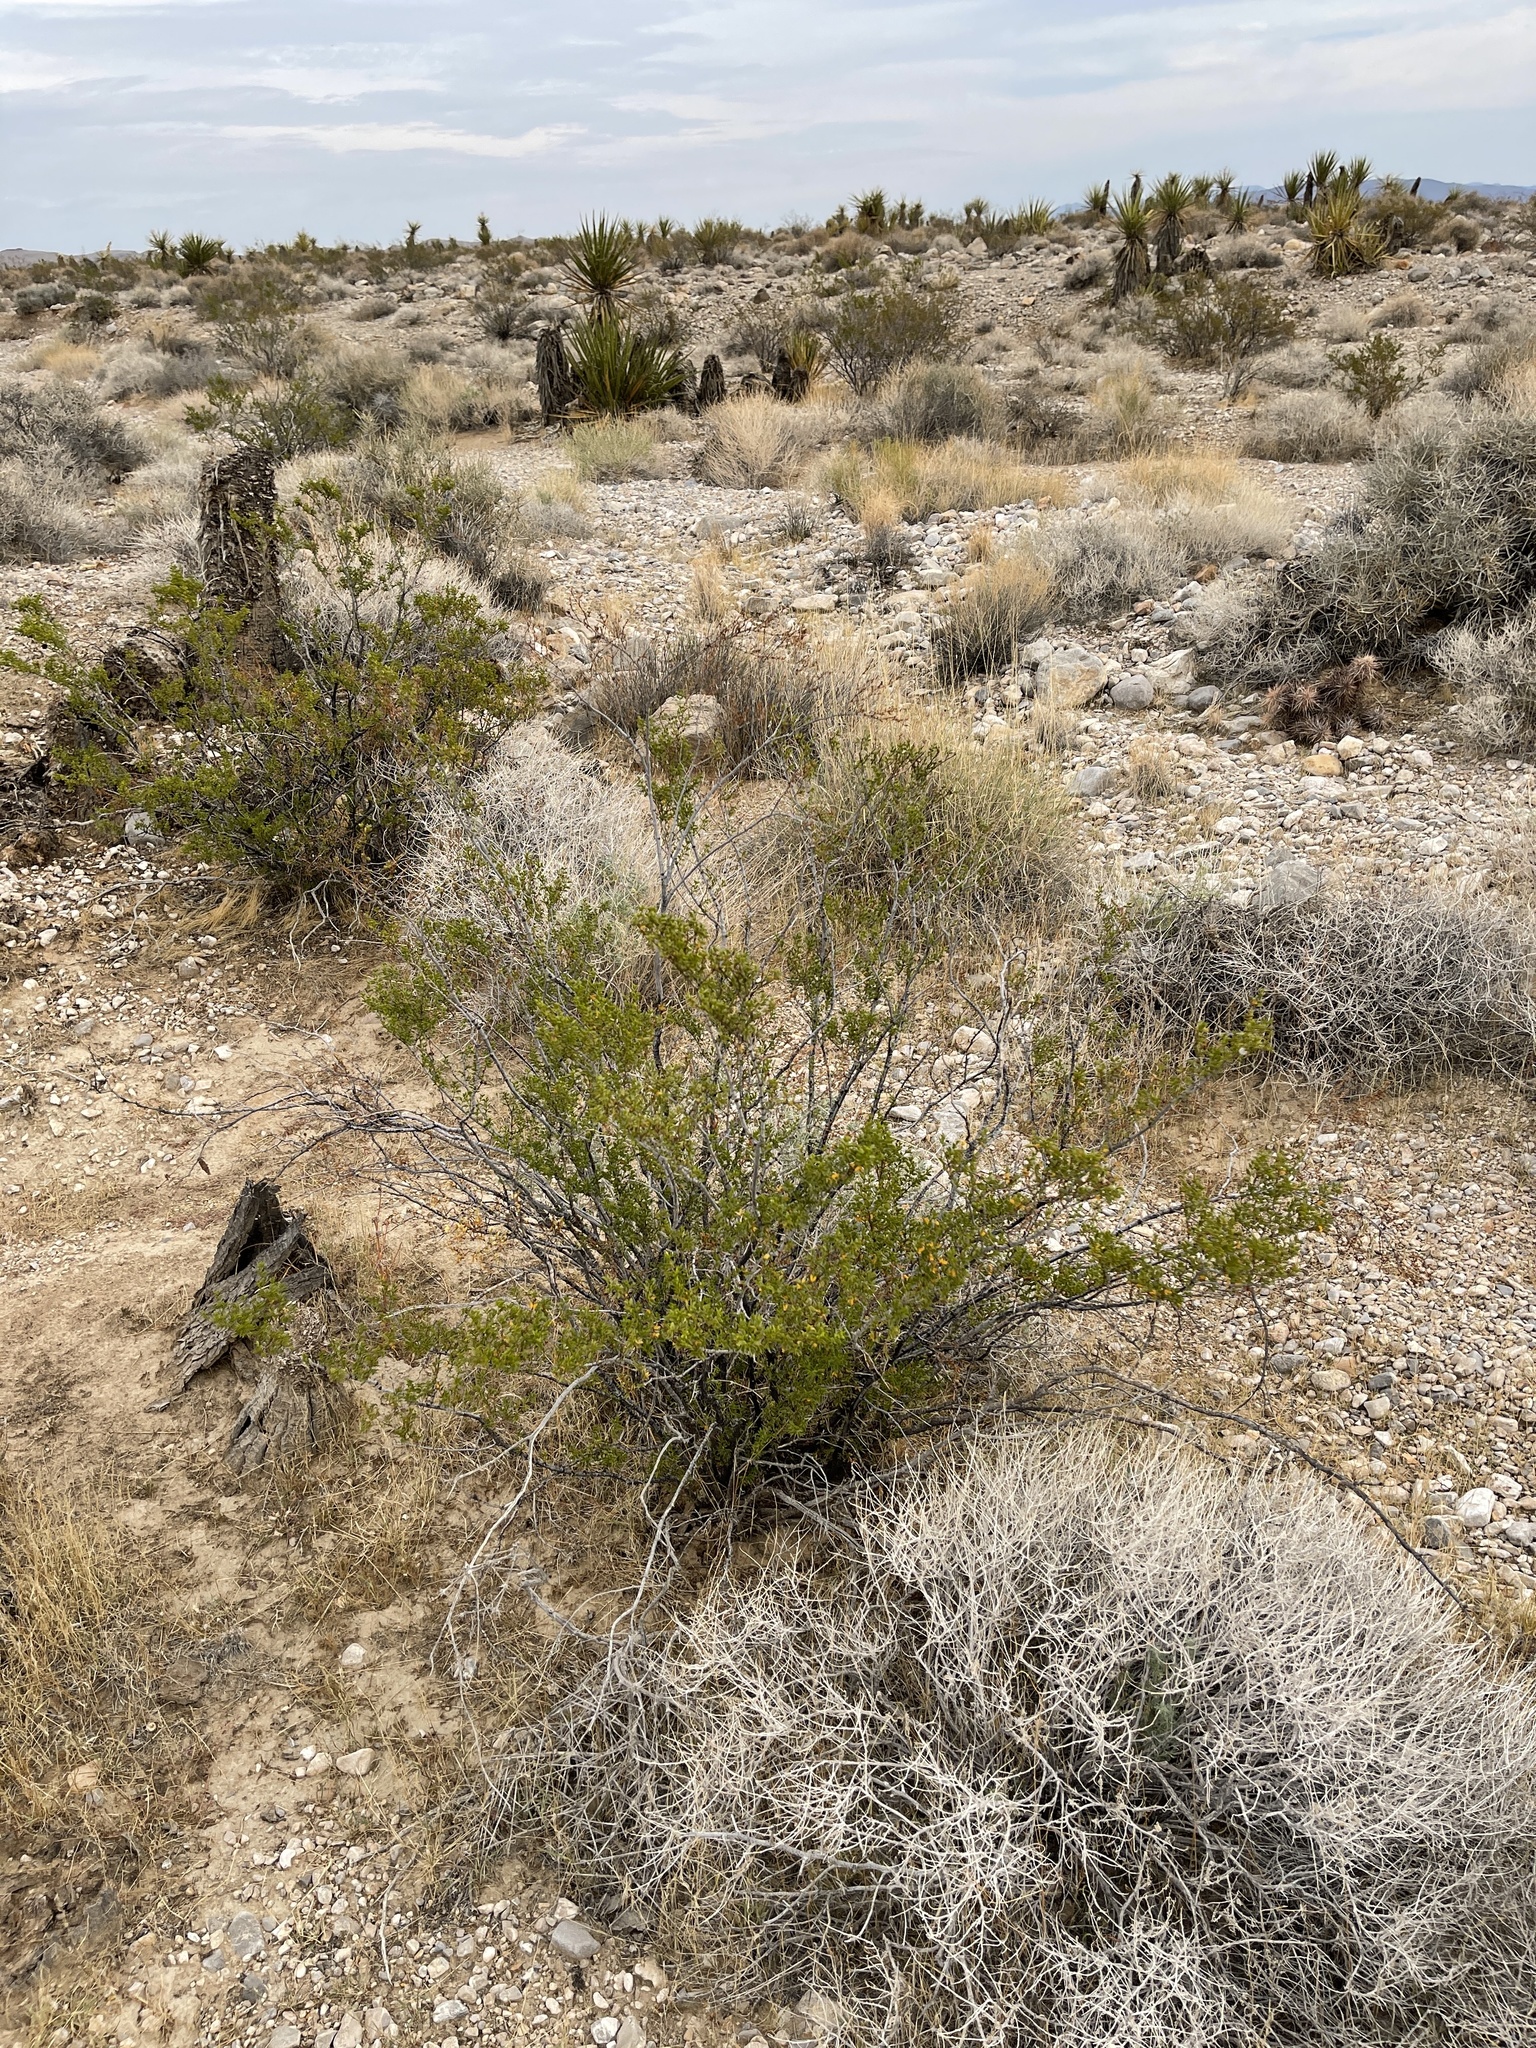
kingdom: Plantae
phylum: Tracheophyta
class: Magnoliopsida
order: Zygophyllales
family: Zygophyllaceae
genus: Larrea
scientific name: Larrea tridentata
